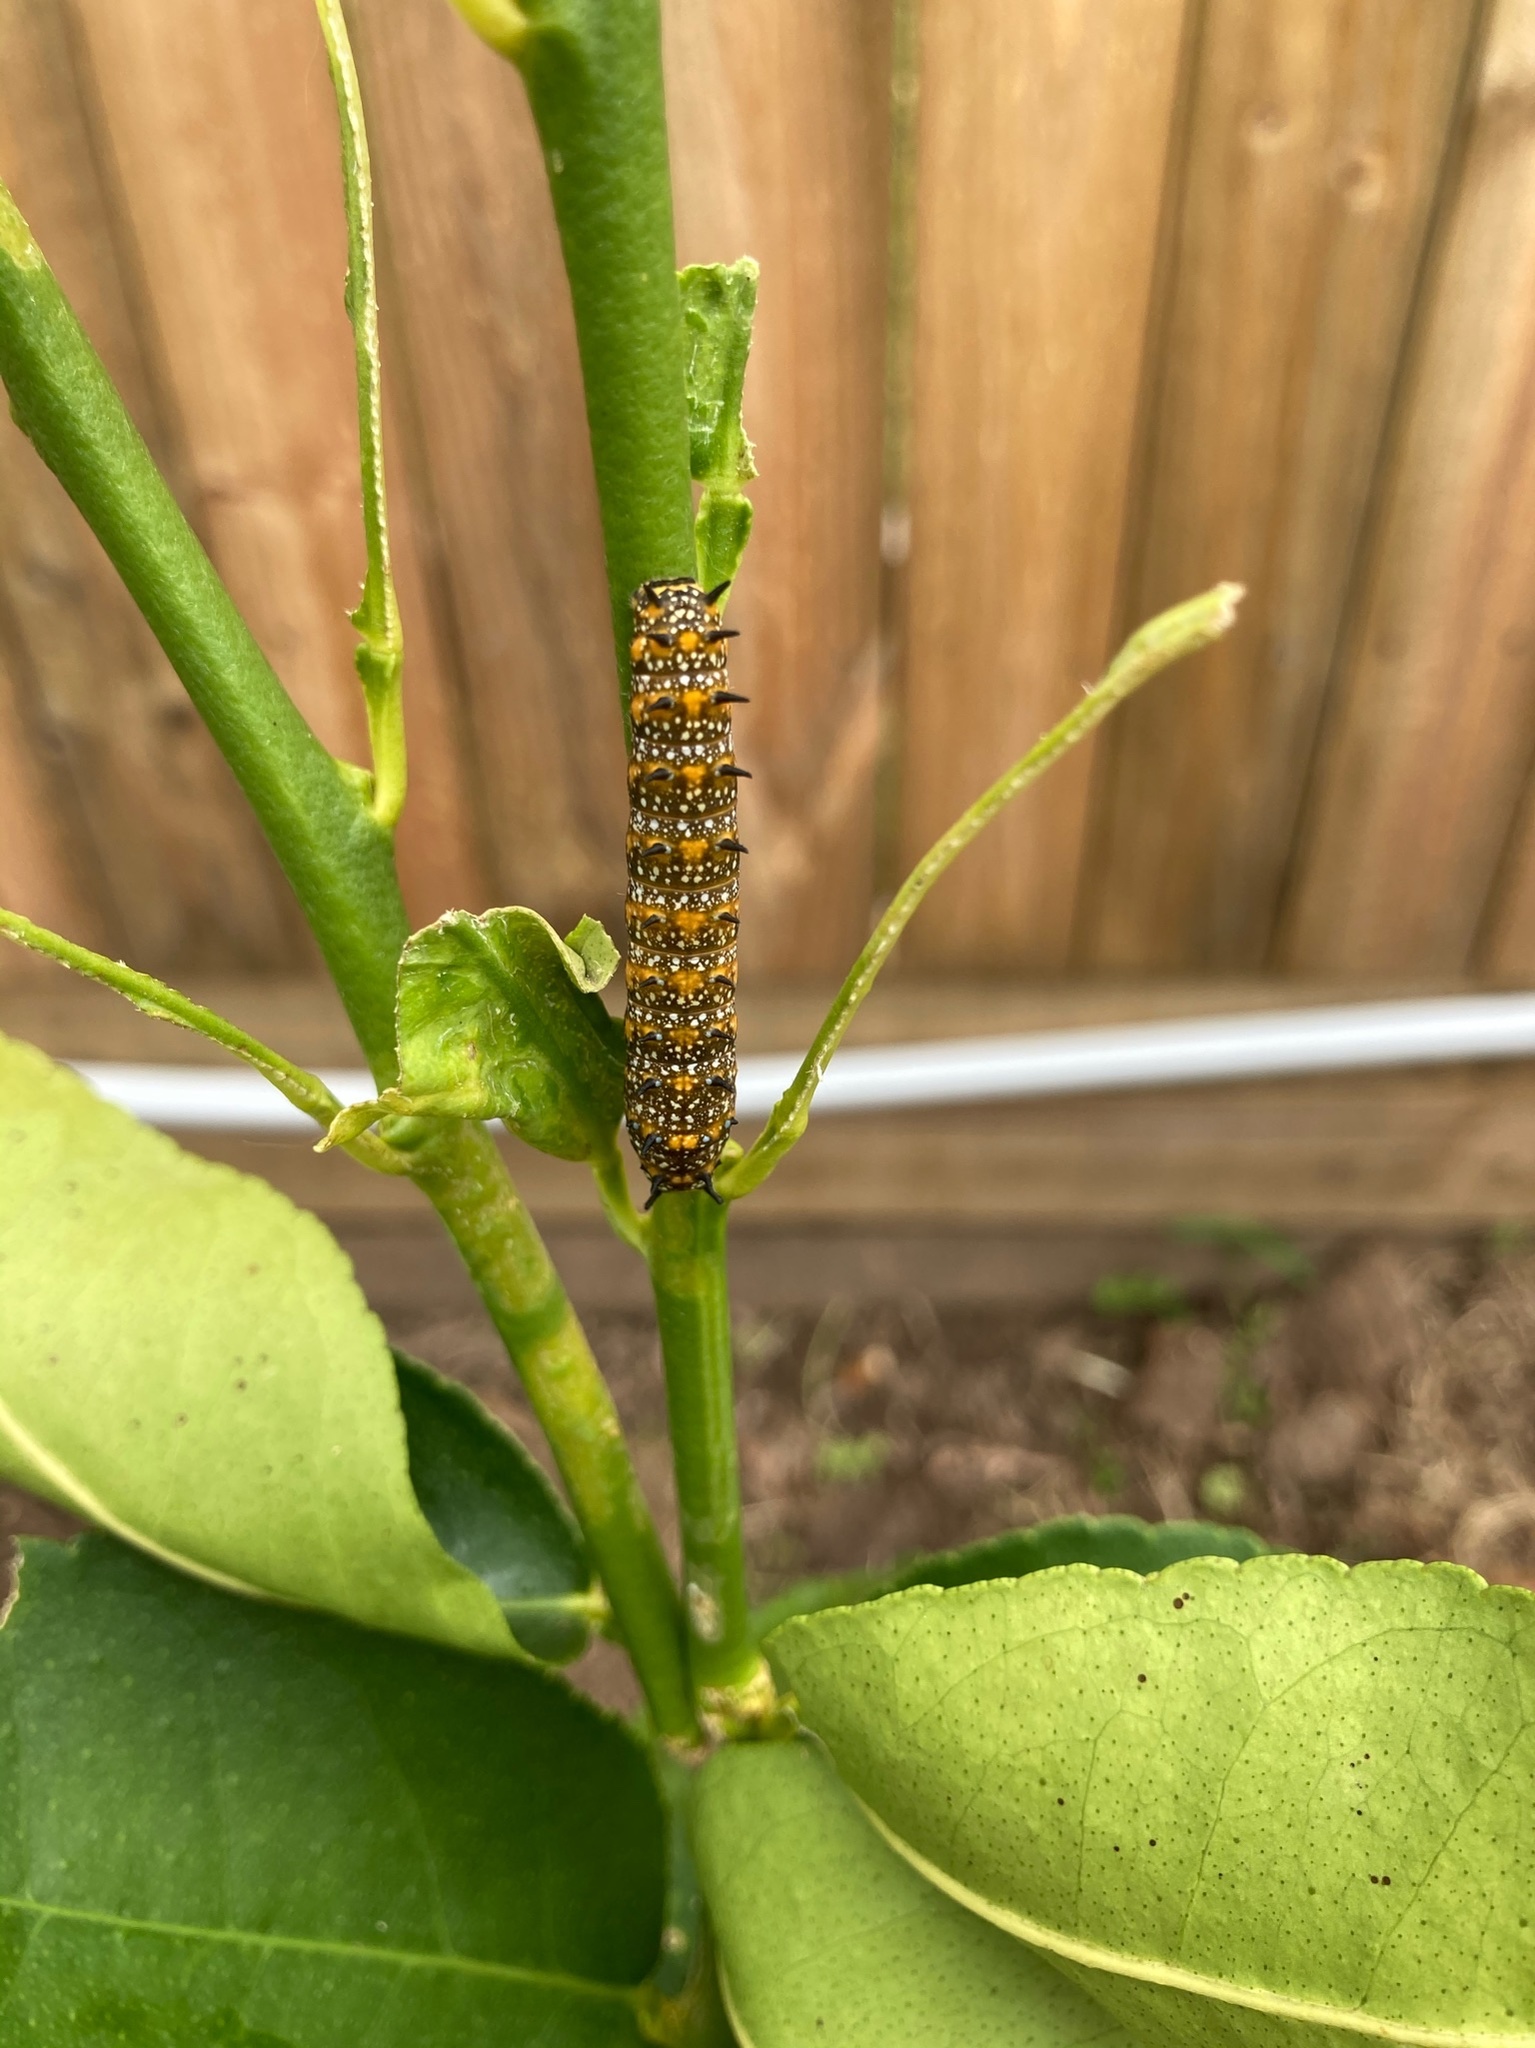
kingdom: Animalia
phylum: Arthropoda
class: Insecta
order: Lepidoptera
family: Papilionidae
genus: Papilio
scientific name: Papilio anactus
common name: Dingy swallowtail
